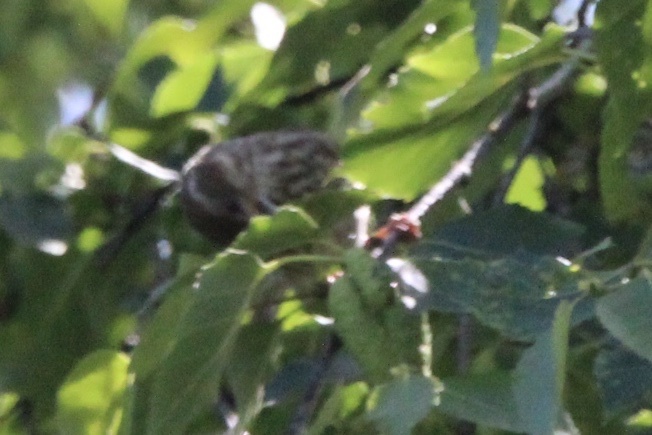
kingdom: Animalia
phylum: Chordata
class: Aves
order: Passeriformes
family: Fringillidae
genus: Haemorhous
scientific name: Haemorhous purpureus
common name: Purple finch
